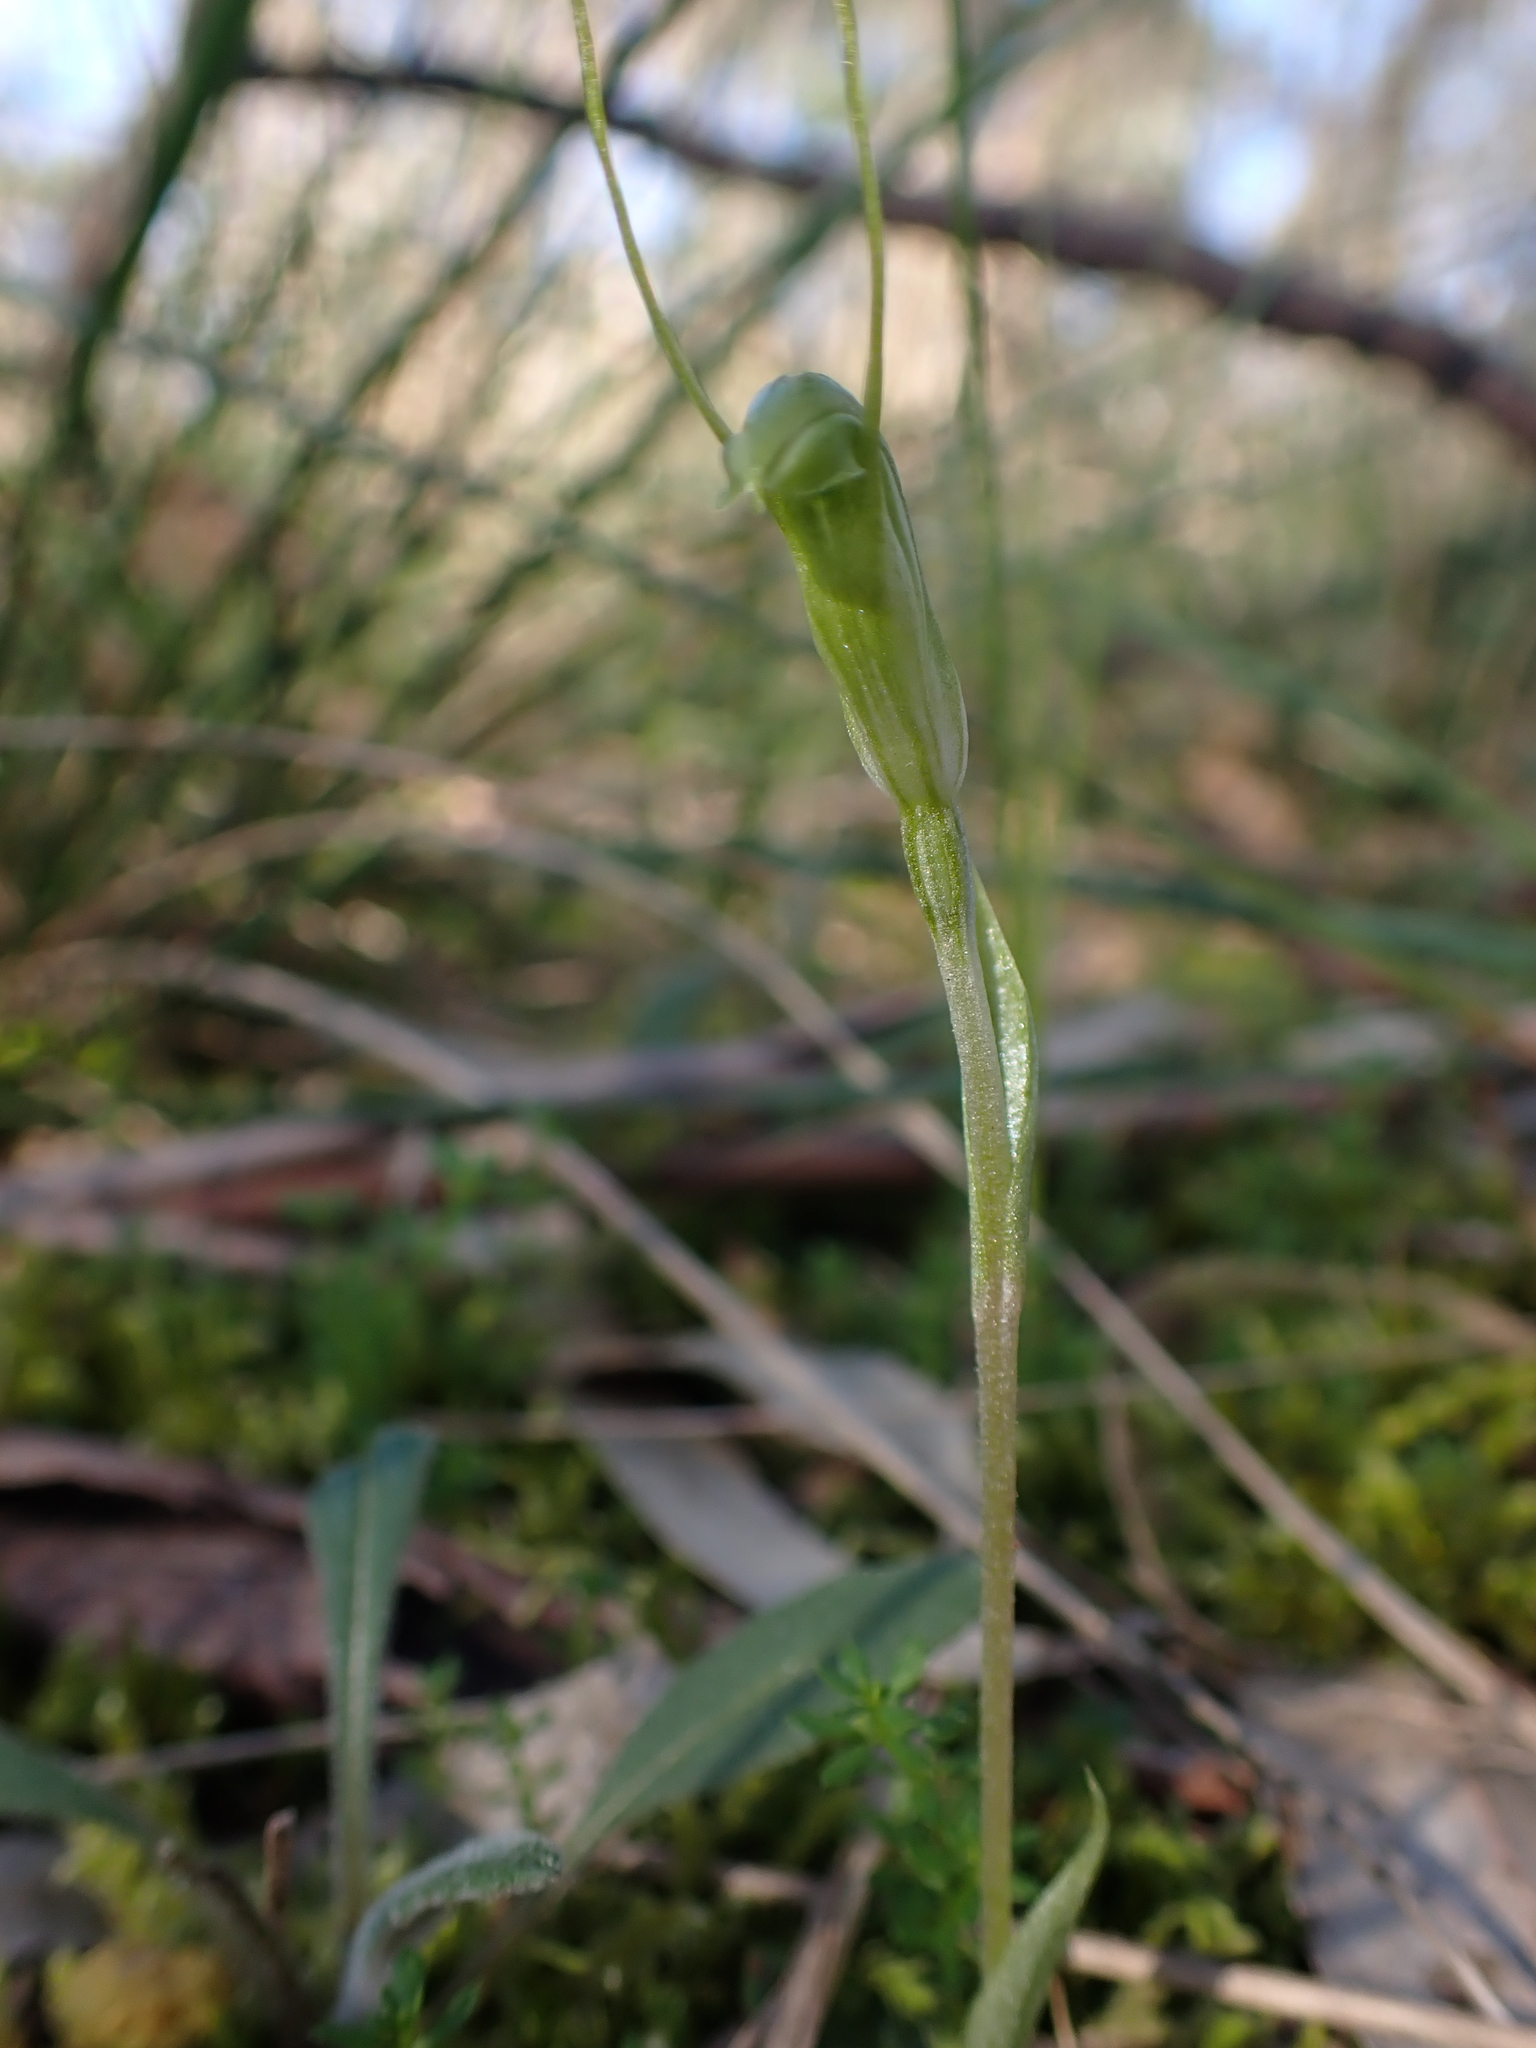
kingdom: Plantae
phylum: Tracheophyta
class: Liliopsida
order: Asparagales
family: Orchidaceae
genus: Pterostylis
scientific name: Pterostylis nana
